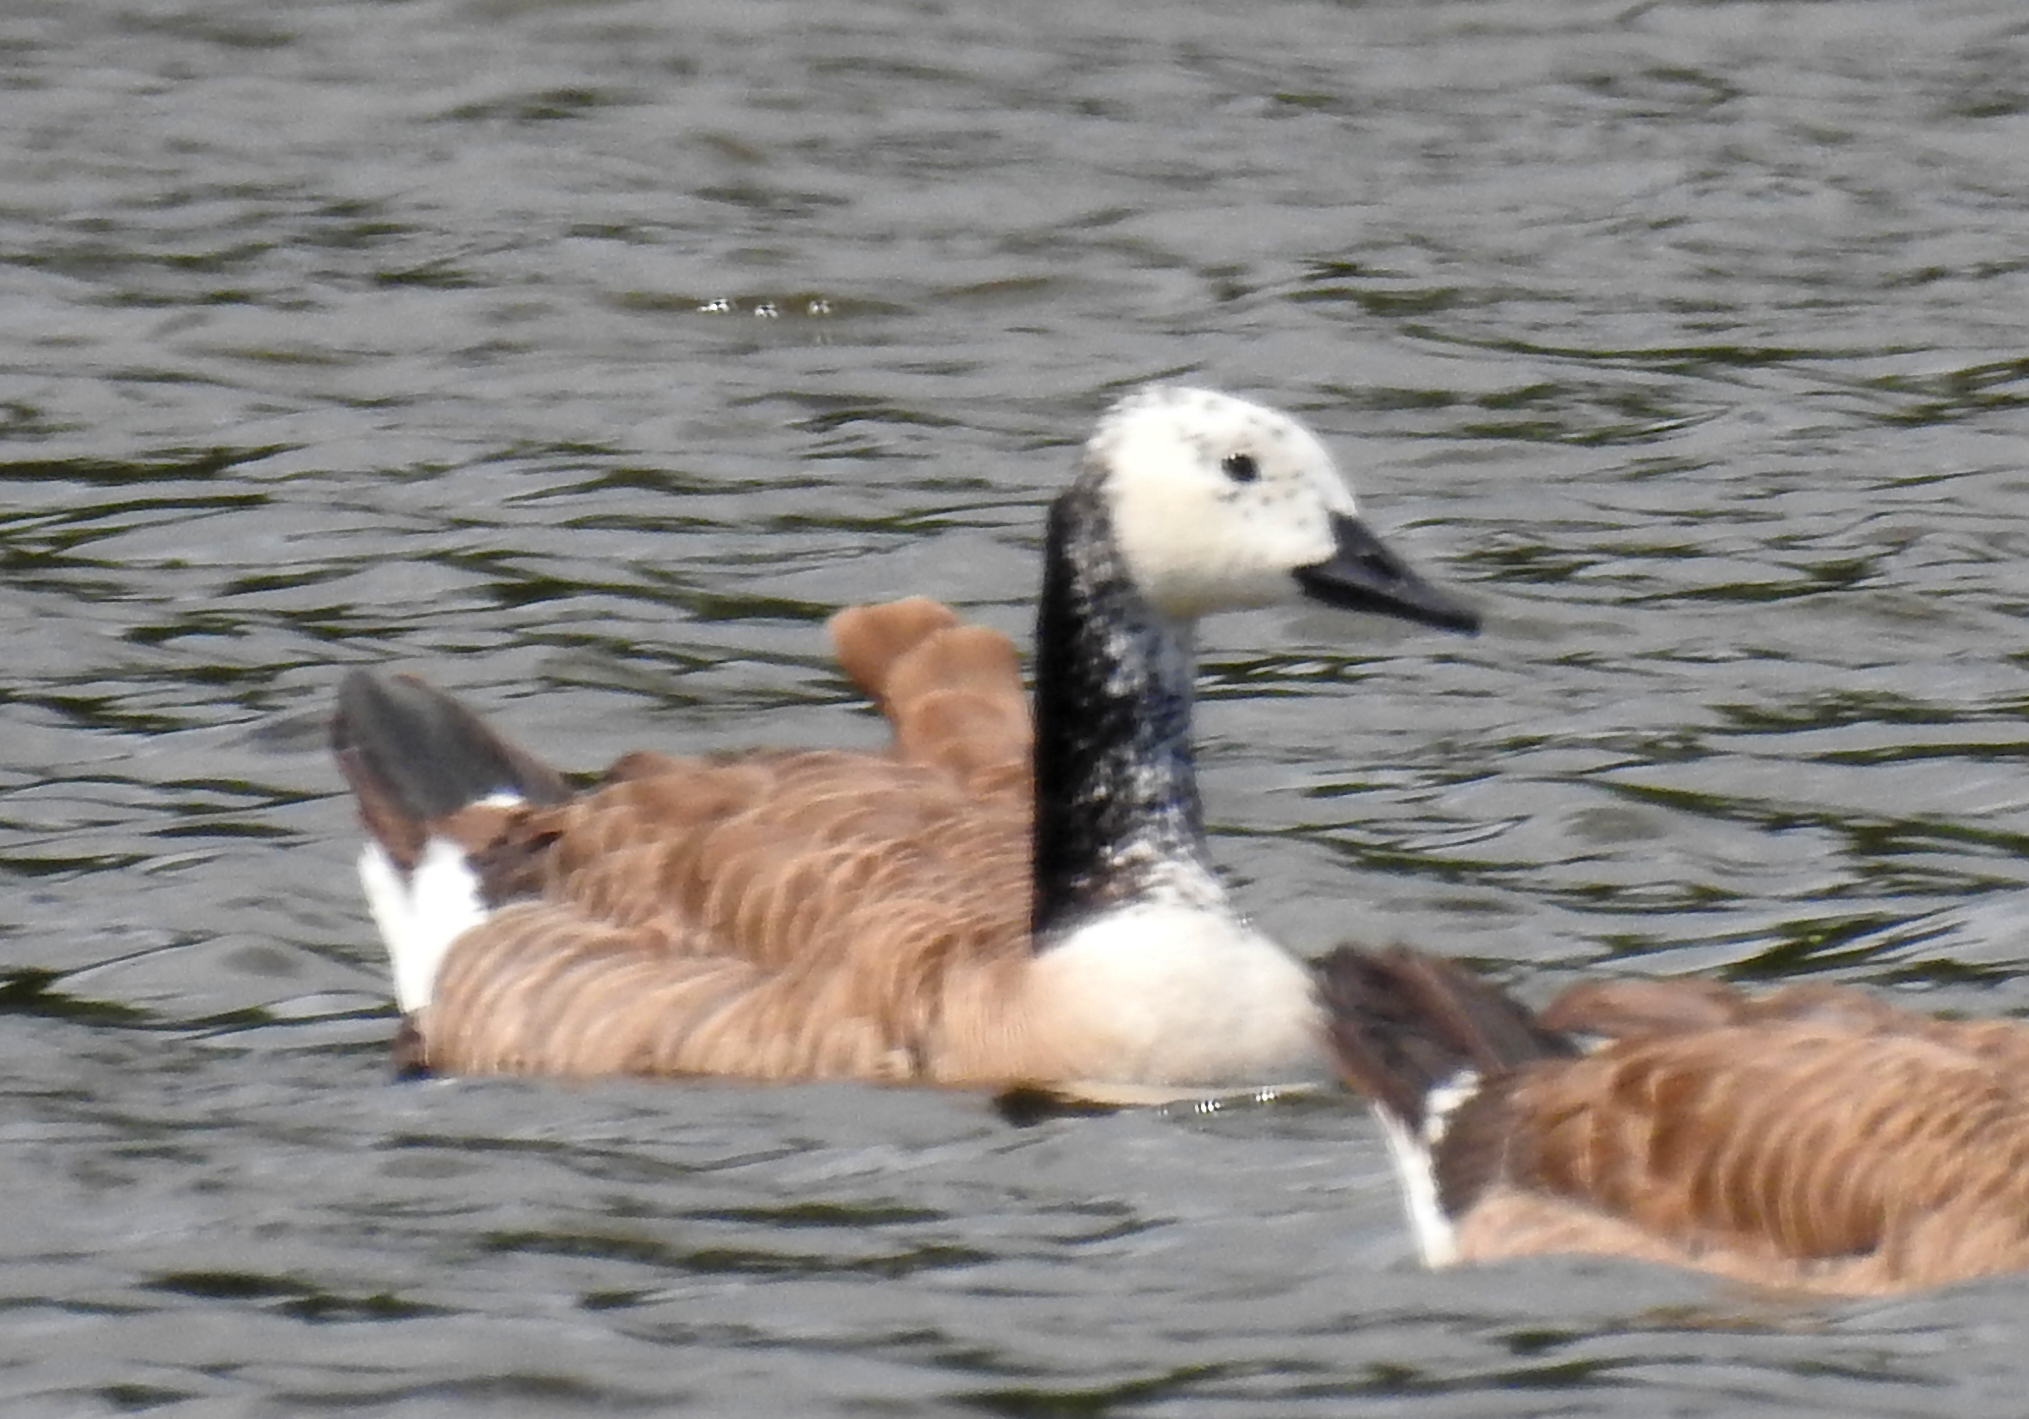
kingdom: Animalia
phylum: Chordata
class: Aves
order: Anseriformes
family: Anatidae
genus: Branta
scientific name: Branta canadensis
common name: Canada goose
